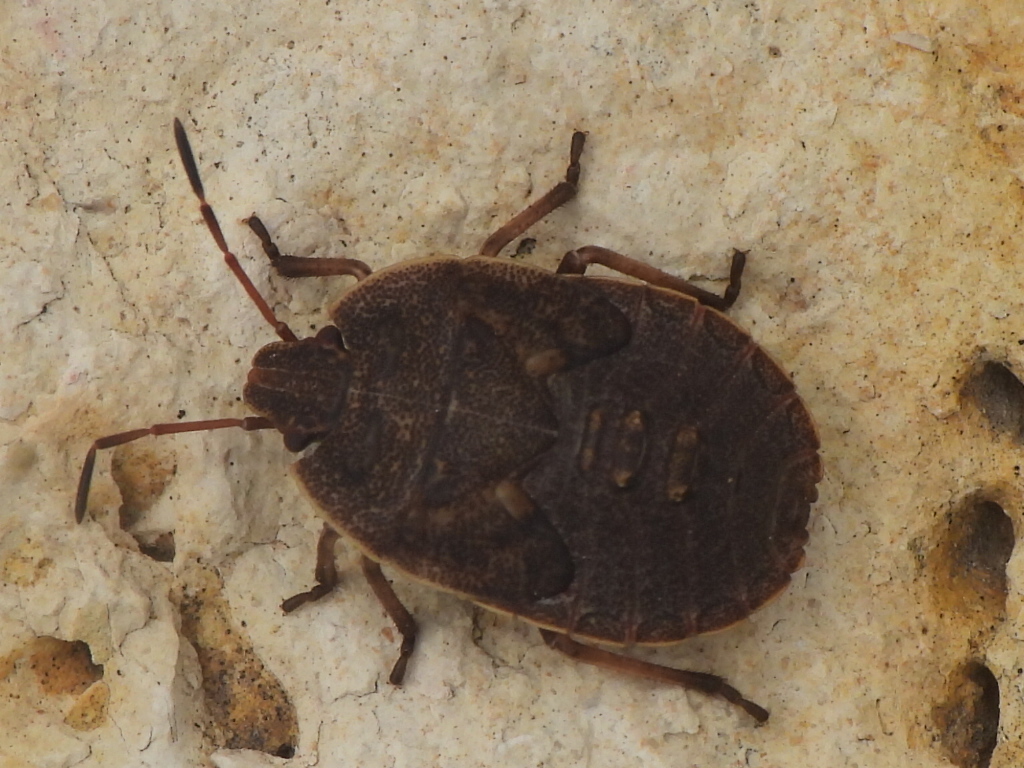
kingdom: Animalia
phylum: Arthropoda
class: Insecta
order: Hemiptera
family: Pentatomidae
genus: Menecles
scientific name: Menecles insertus
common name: Elf shoe stink bug
